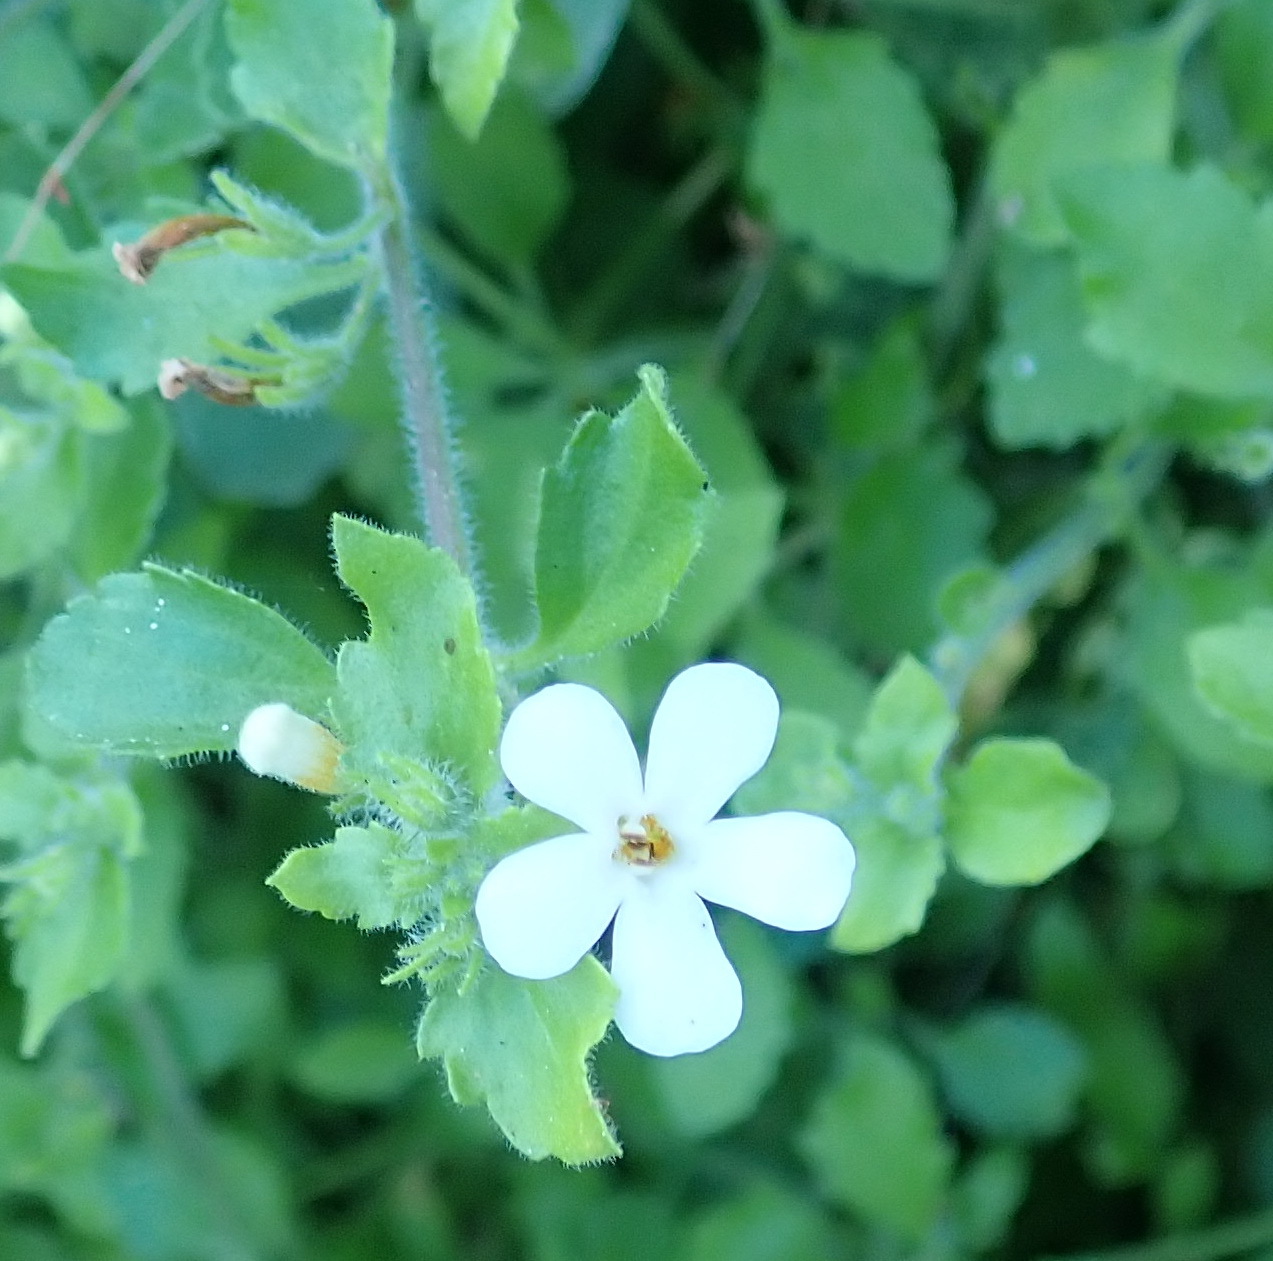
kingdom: Plantae
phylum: Tracheophyta
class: Magnoliopsida
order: Lamiales
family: Scrophulariaceae
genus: Chaenostoma
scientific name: Chaenostoma campanulatum
